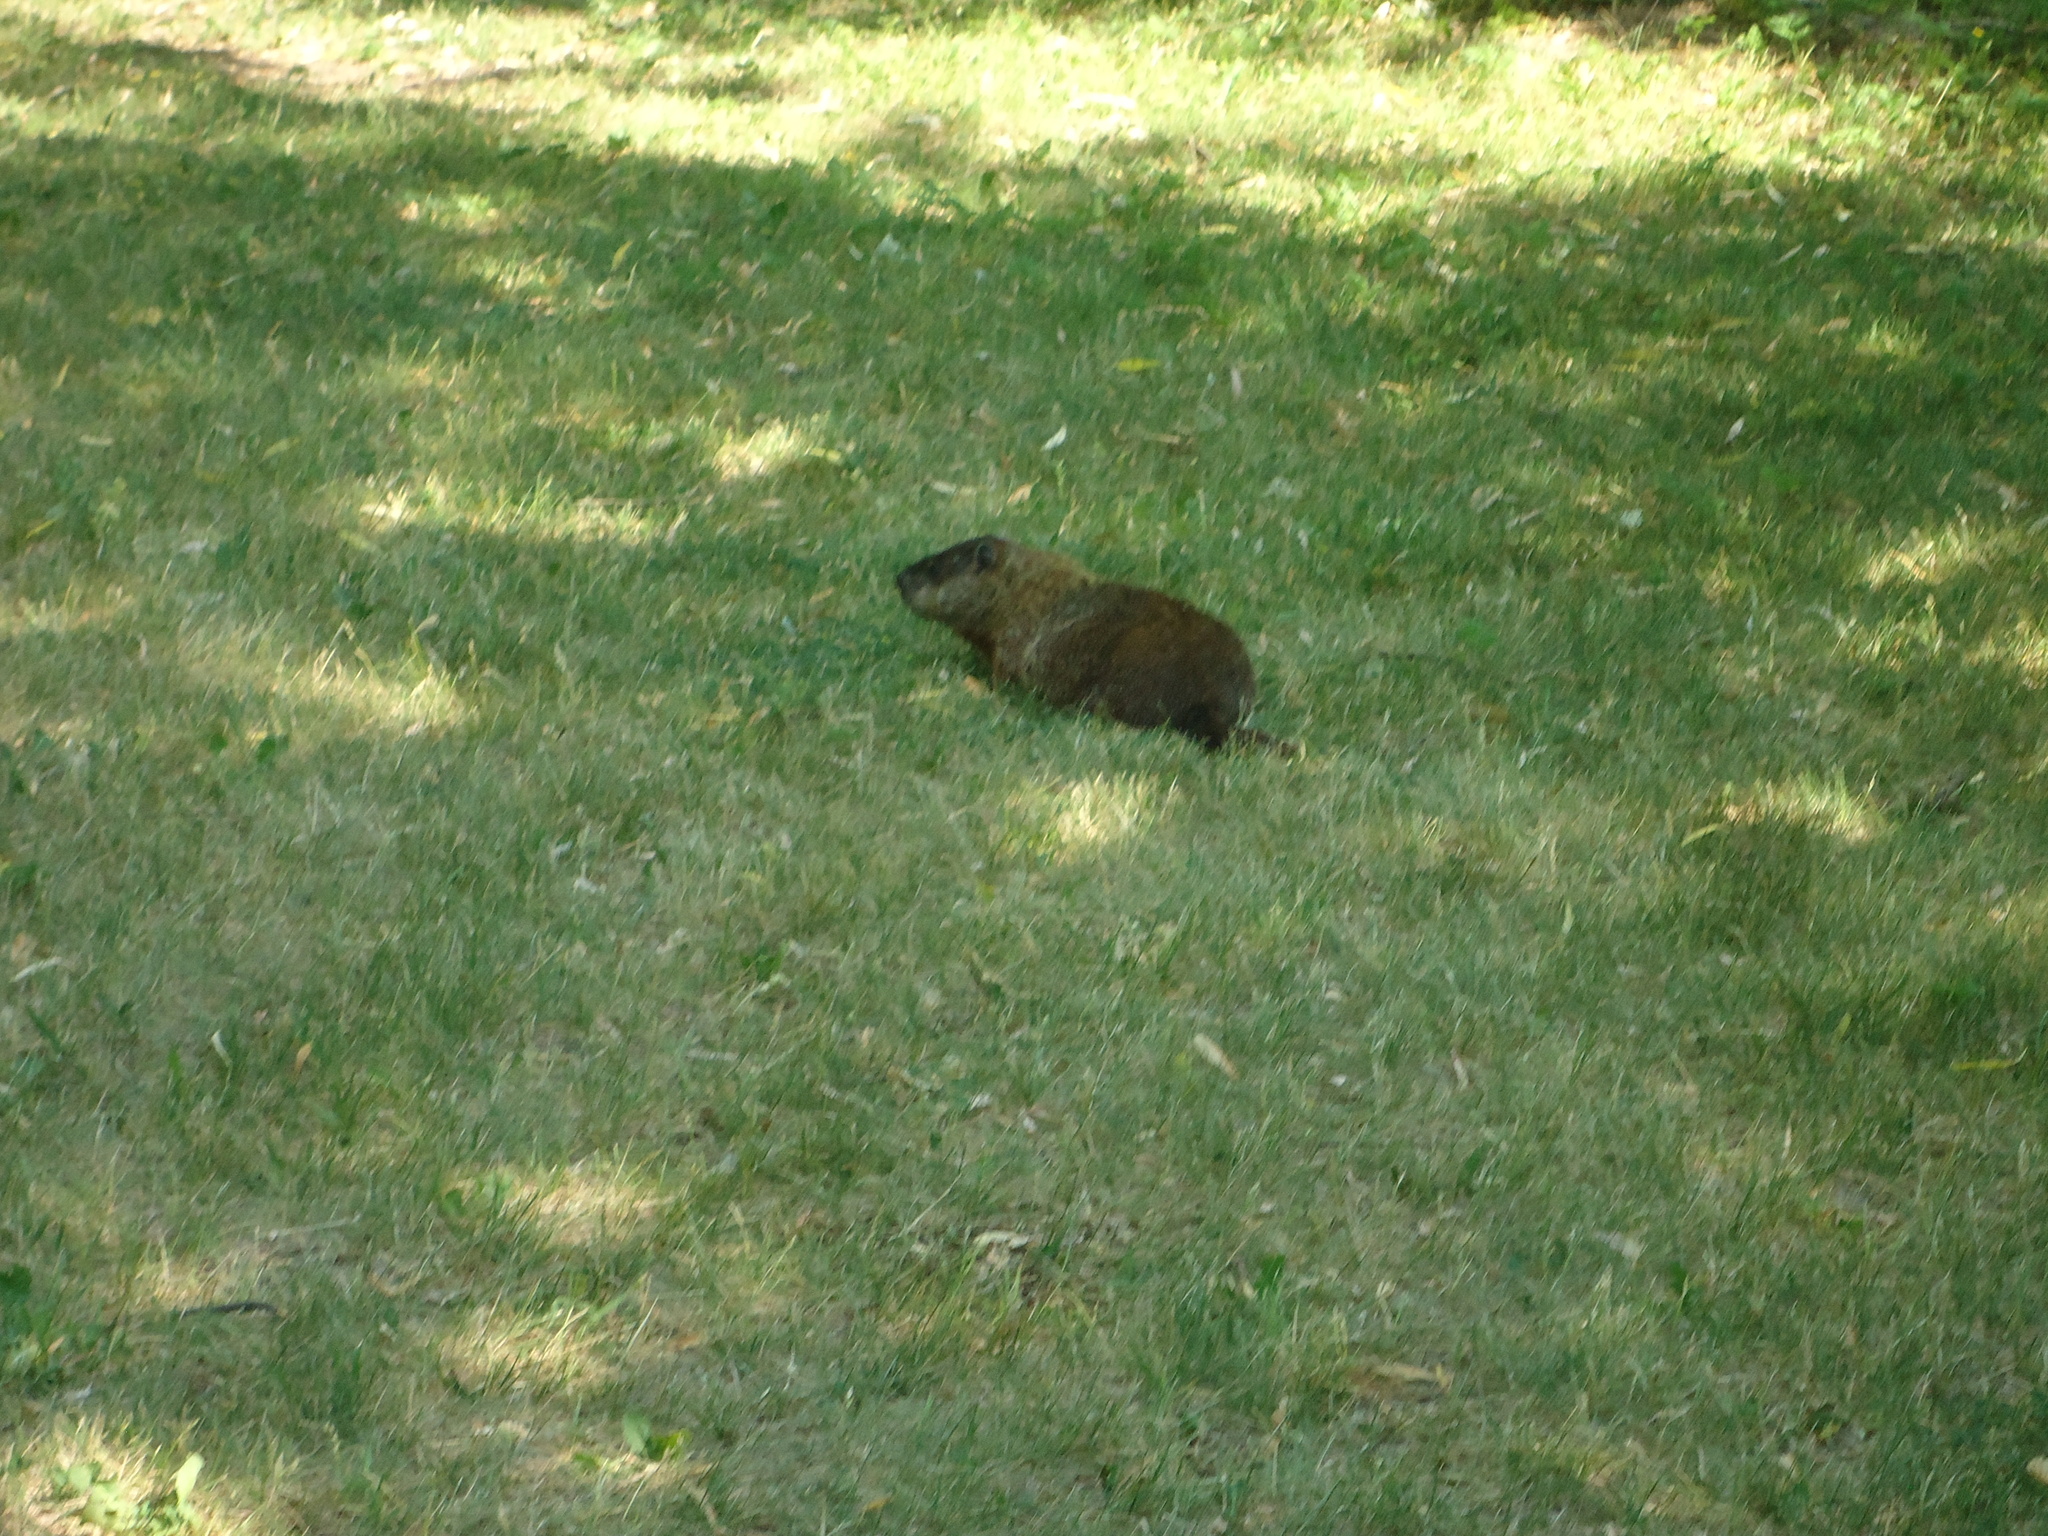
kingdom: Animalia
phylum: Chordata
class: Mammalia
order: Rodentia
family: Sciuridae
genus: Marmota
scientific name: Marmota monax
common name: Groundhog
